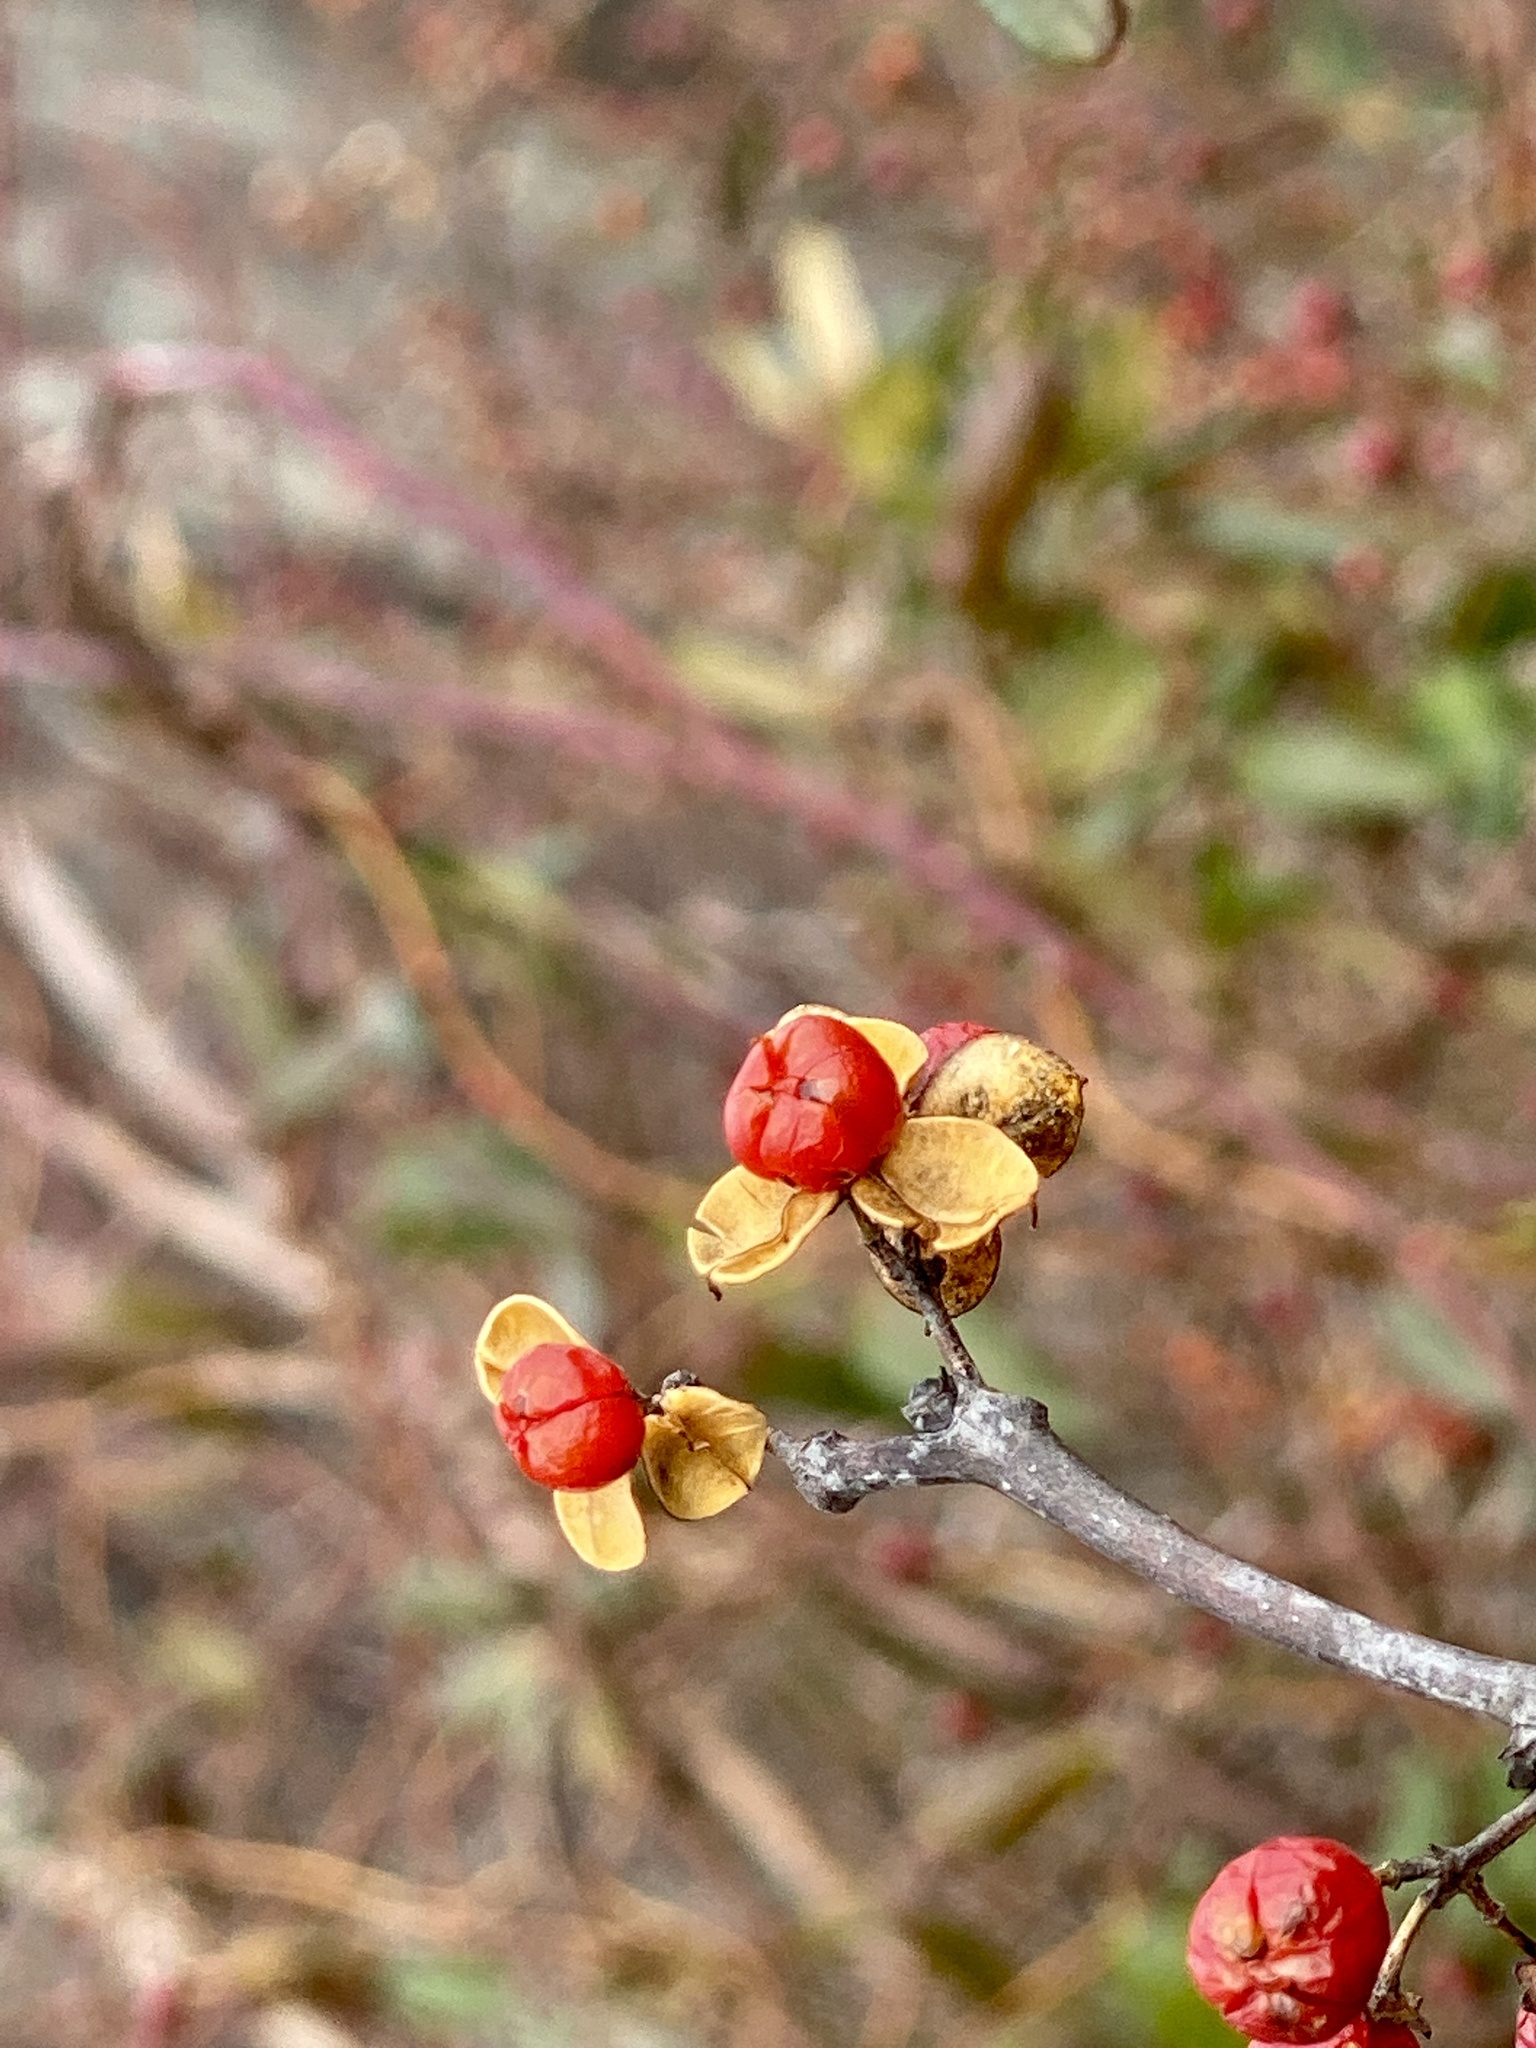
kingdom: Plantae
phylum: Tracheophyta
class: Magnoliopsida
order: Celastrales
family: Celastraceae
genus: Celastrus
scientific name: Celastrus orbiculatus
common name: Oriental bittersweet
